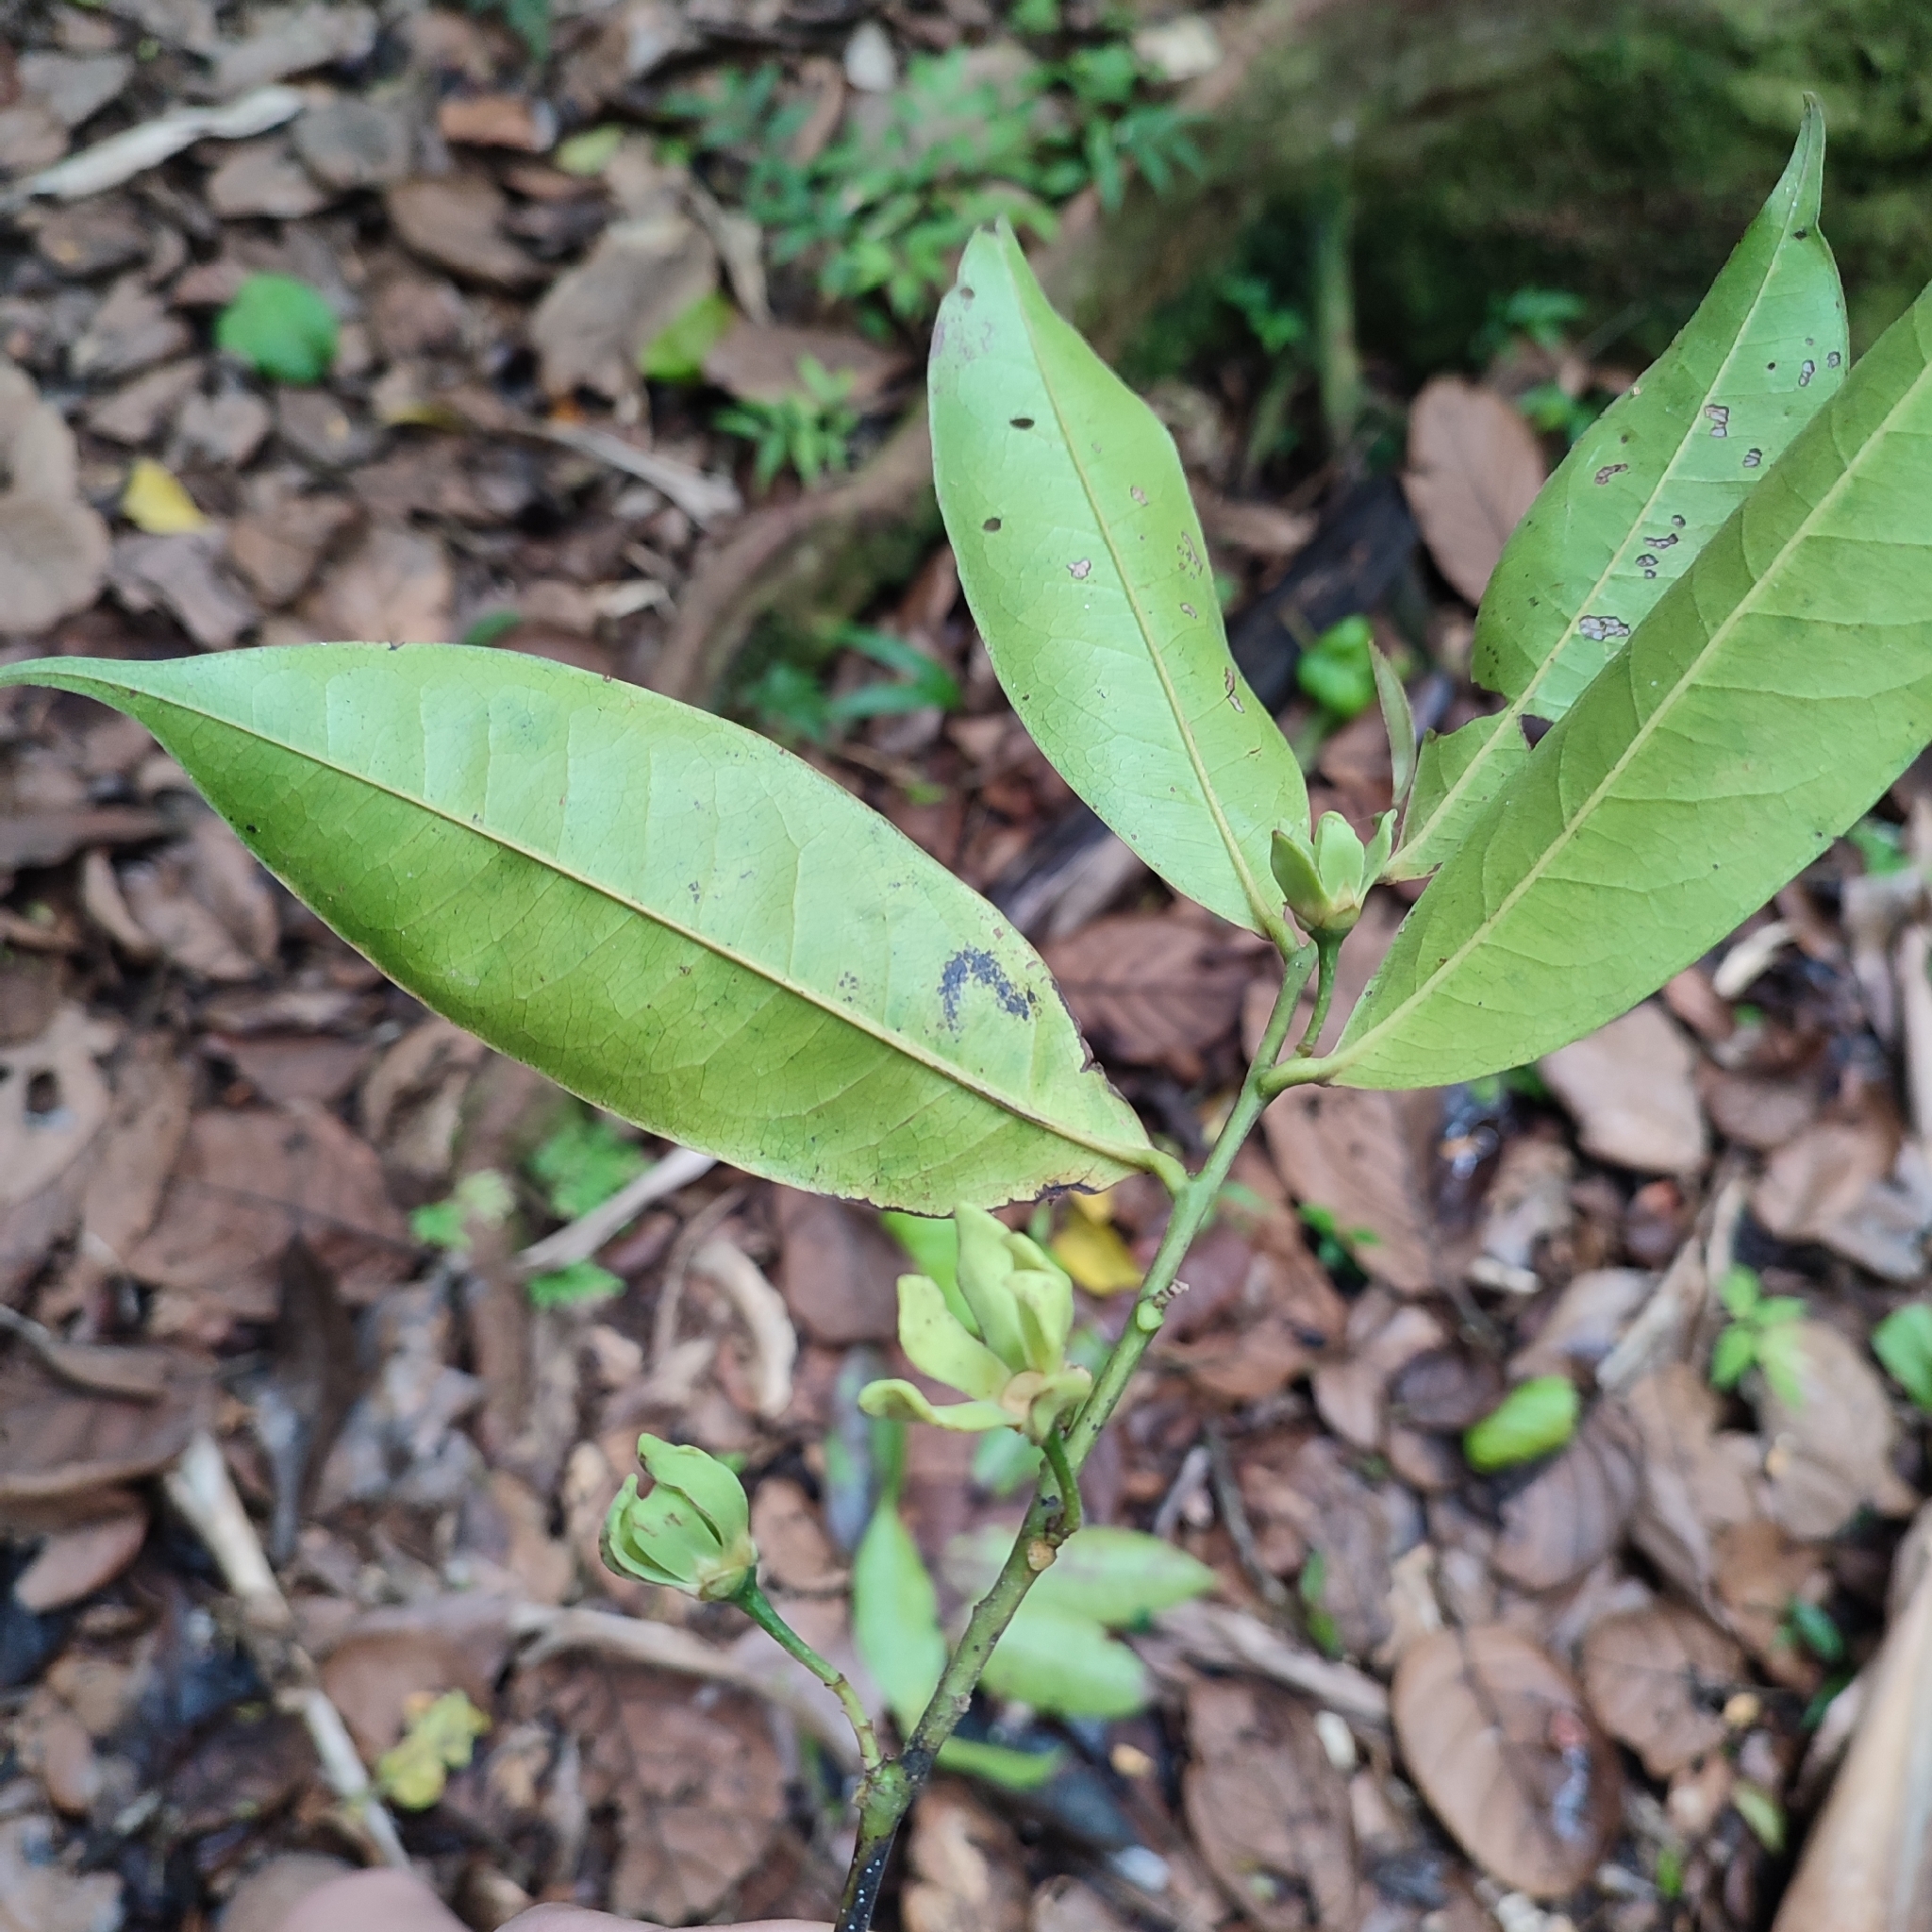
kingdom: Plantae
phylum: Tracheophyta
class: Magnoliopsida
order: Magnoliales
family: Annonaceae
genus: Guatteria
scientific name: Guatteria caribaea
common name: Wild soursop
